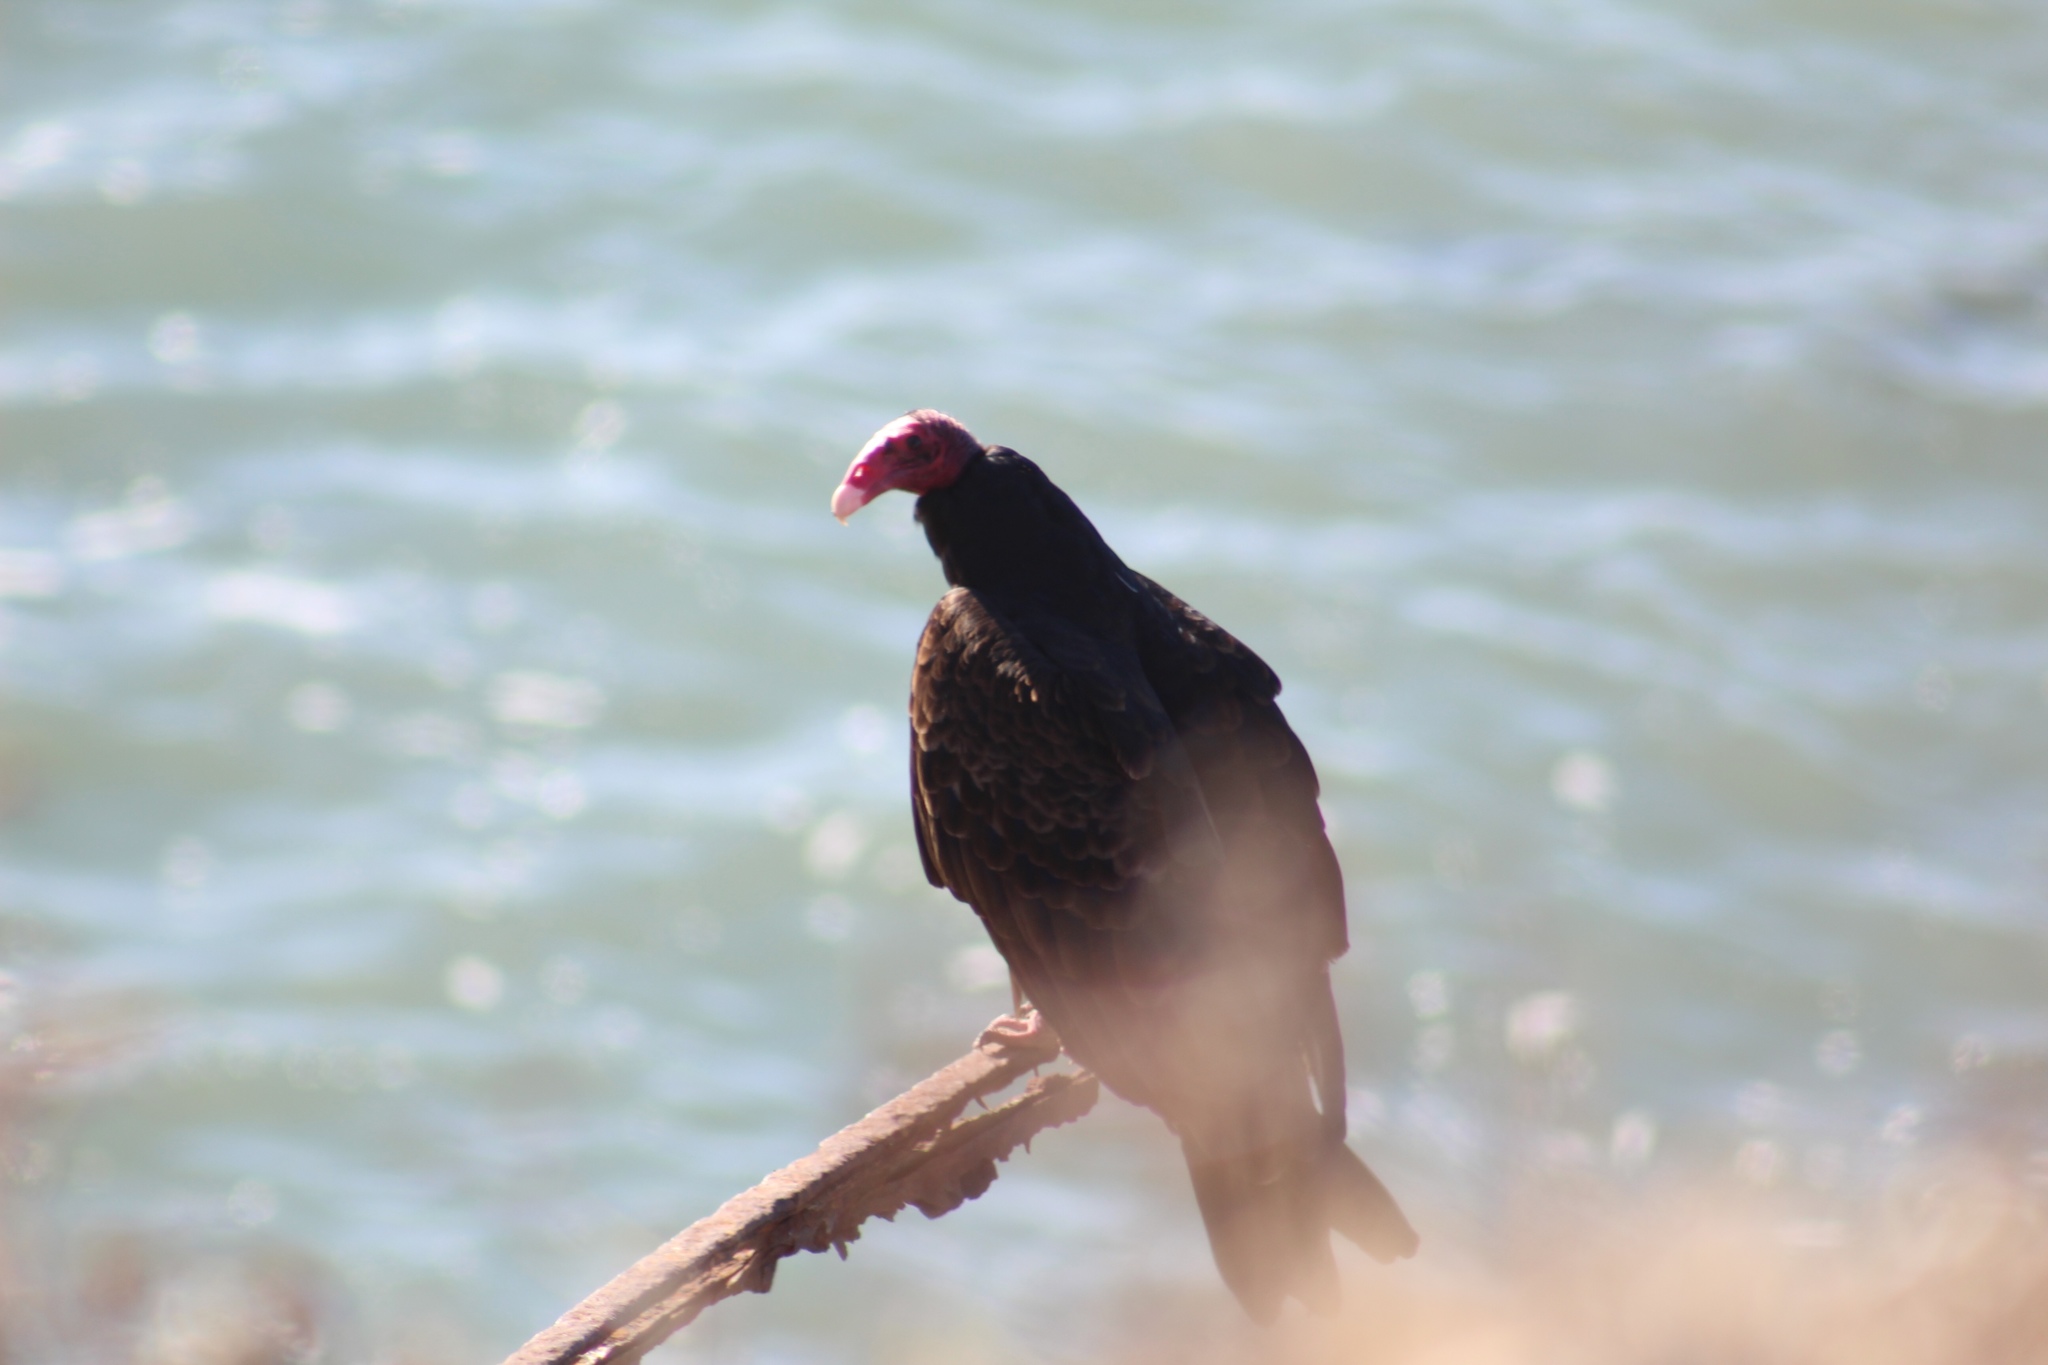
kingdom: Animalia
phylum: Chordata
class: Aves
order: Accipitriformes
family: Cathartidae
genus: Cathartes
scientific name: Cathartes aura
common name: Turkey vulture
